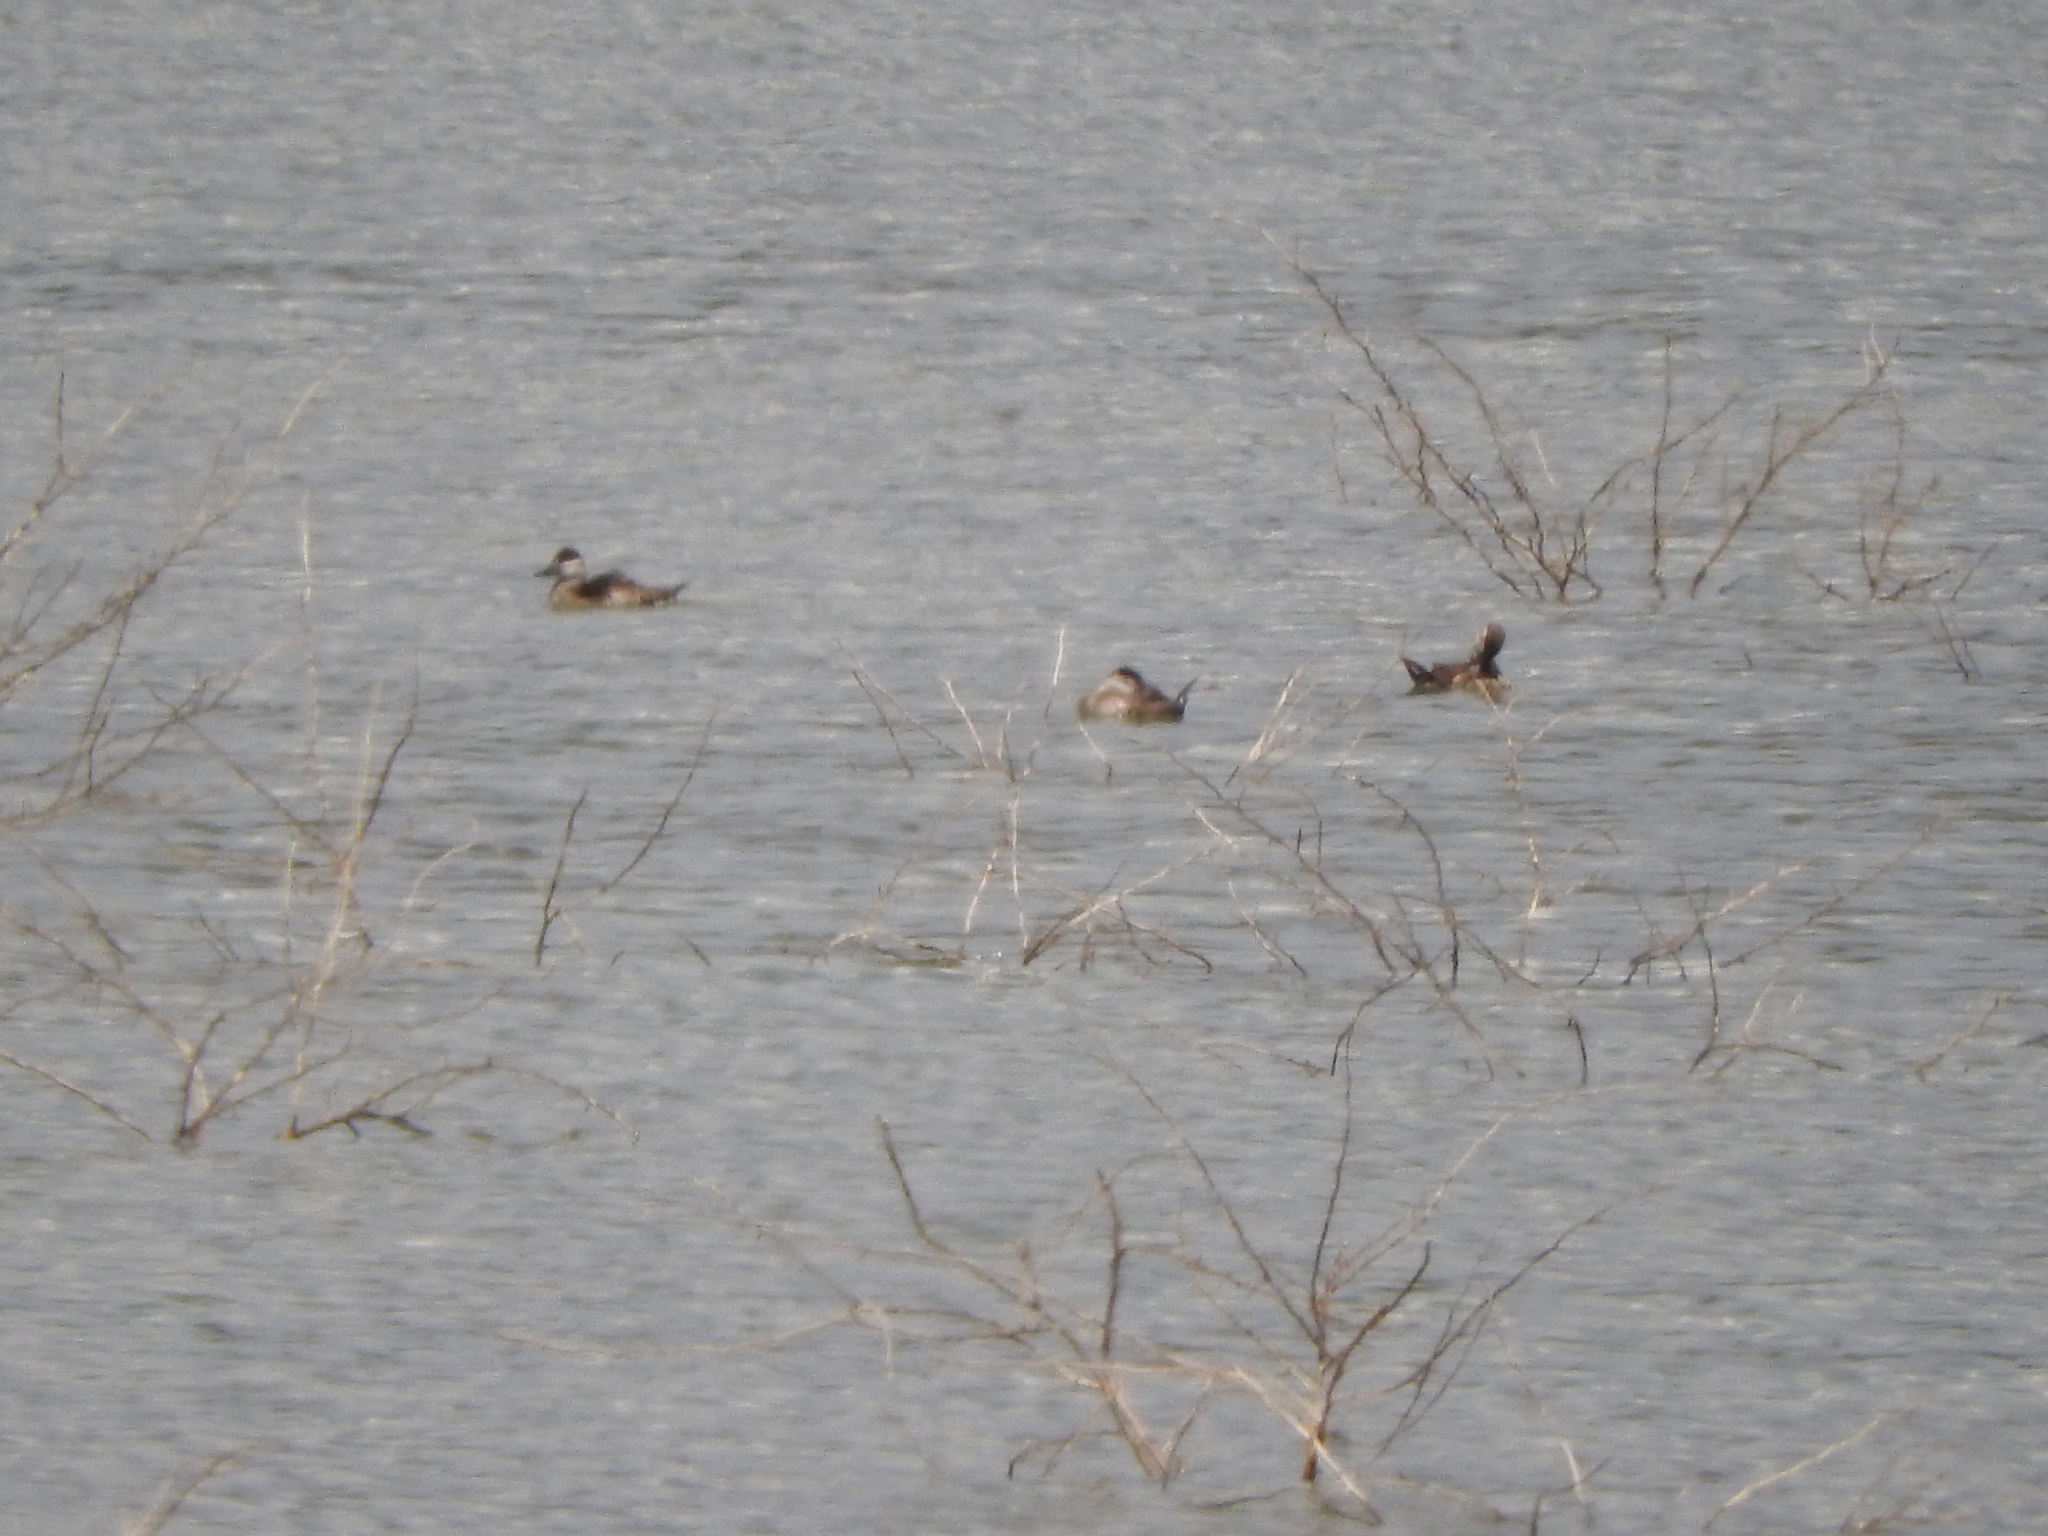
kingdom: Animalia
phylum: Chordata
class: Aves
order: Anseriformes
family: Anatidae
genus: Oxyura
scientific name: Oxyura jamaicensis
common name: Ruddy duck
